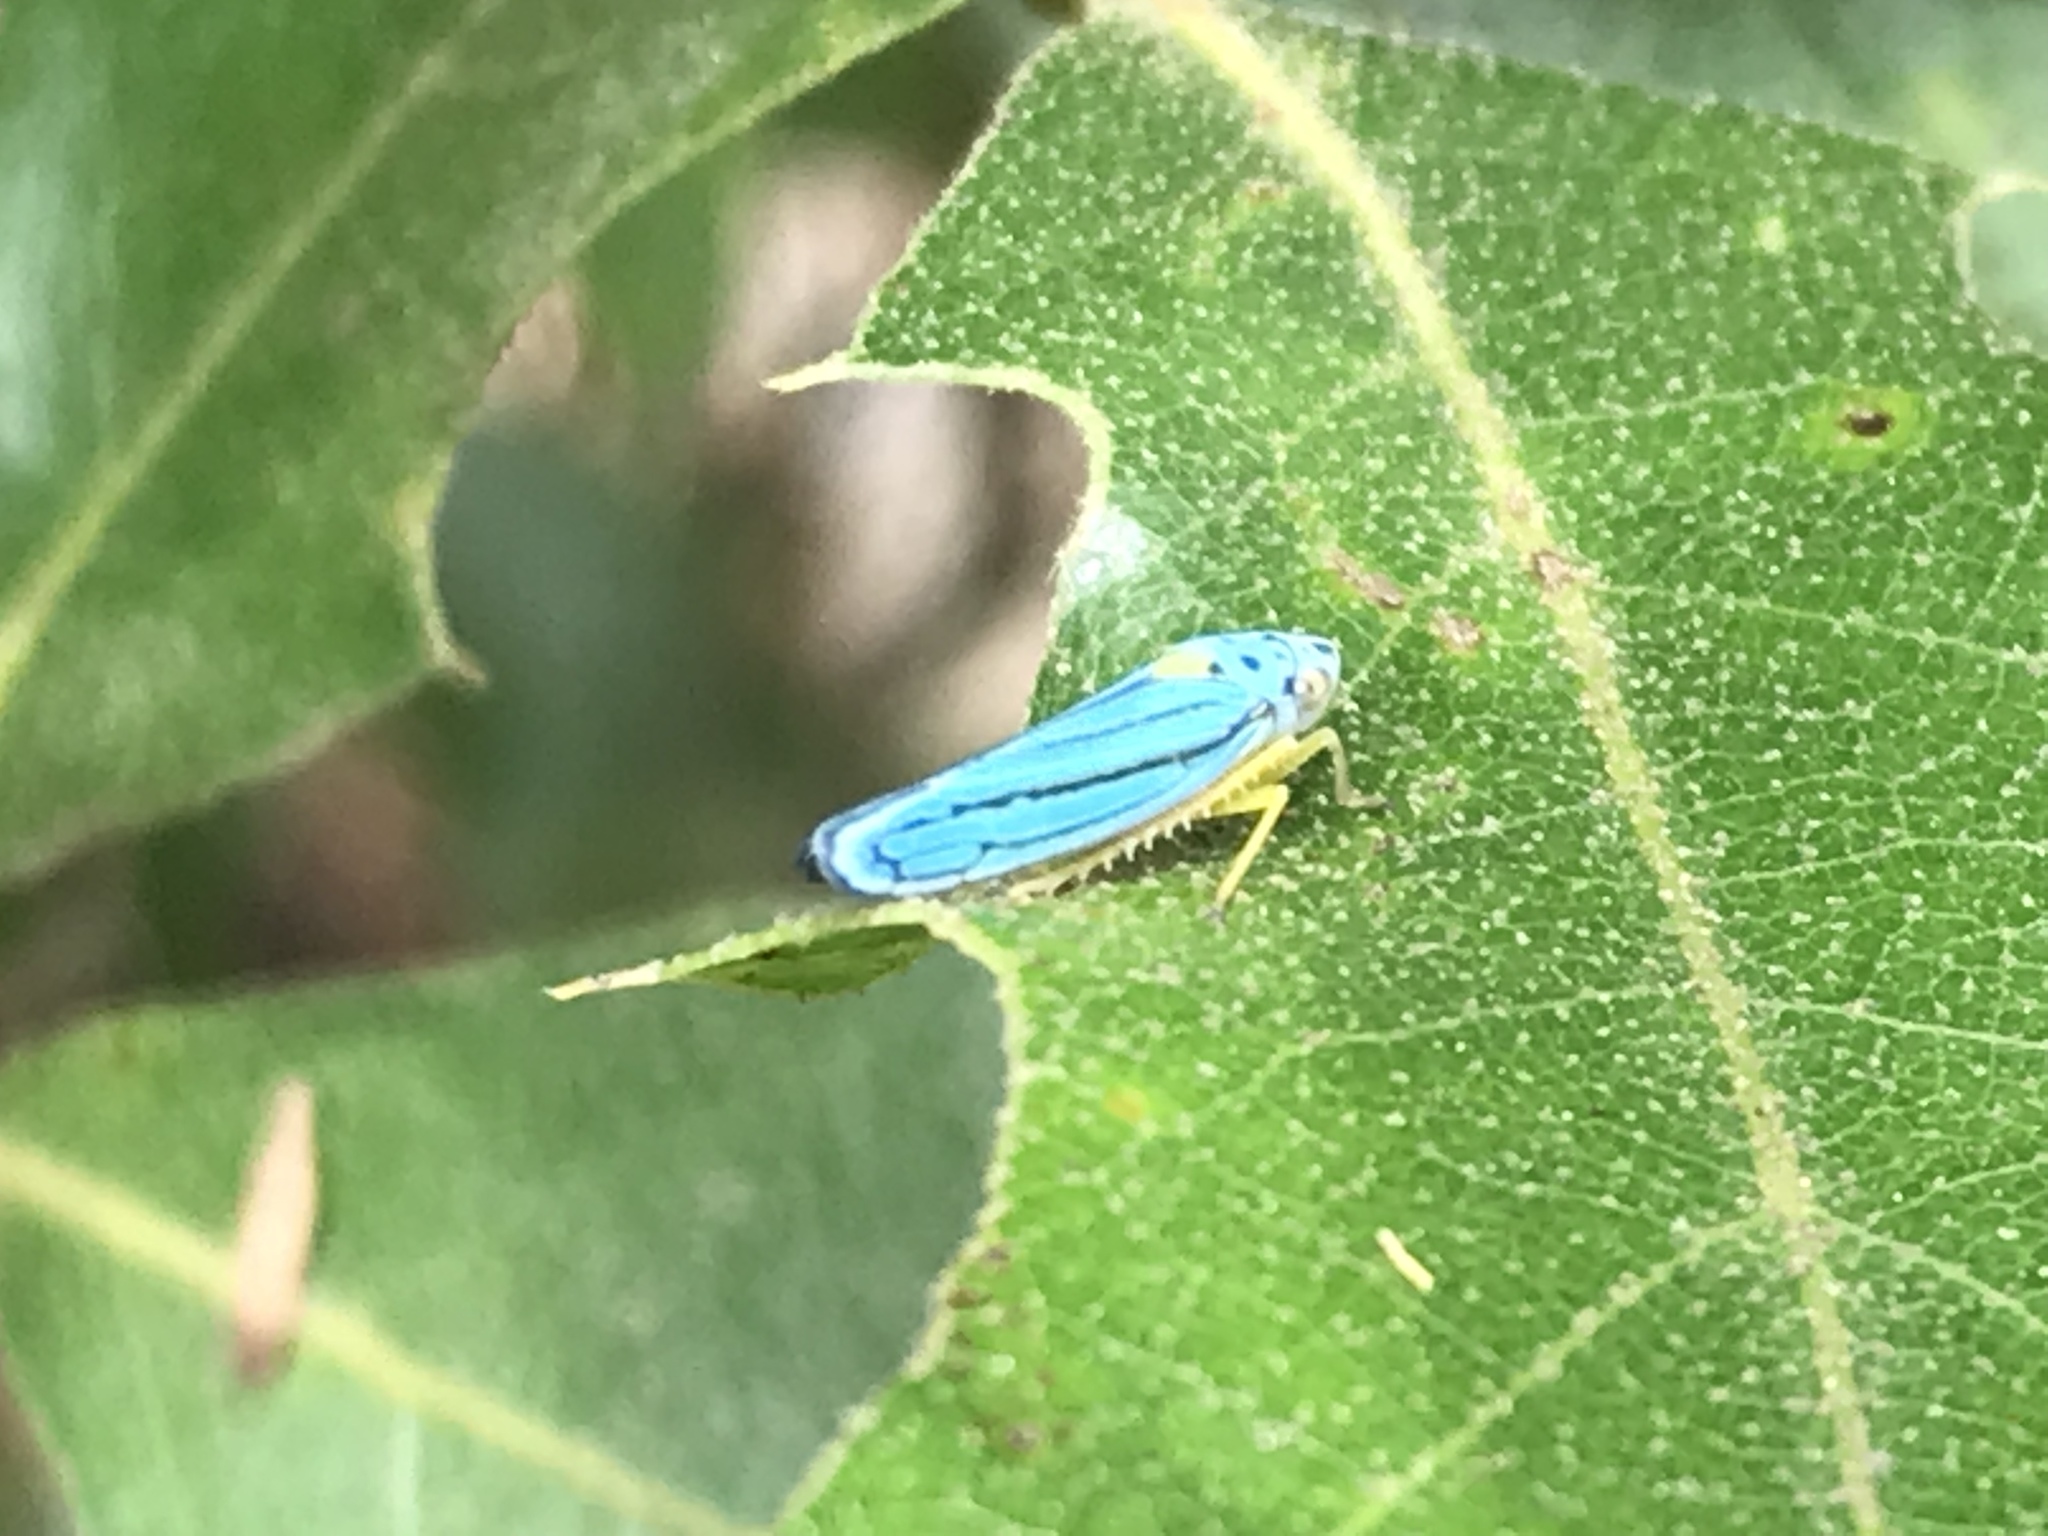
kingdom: Animalia
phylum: Arthropoda
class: Insecta
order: Hemiptera
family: Cicadellidae
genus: Graphocephala
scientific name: Graphocephala atropunctata
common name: Blue-green sharpshooter
